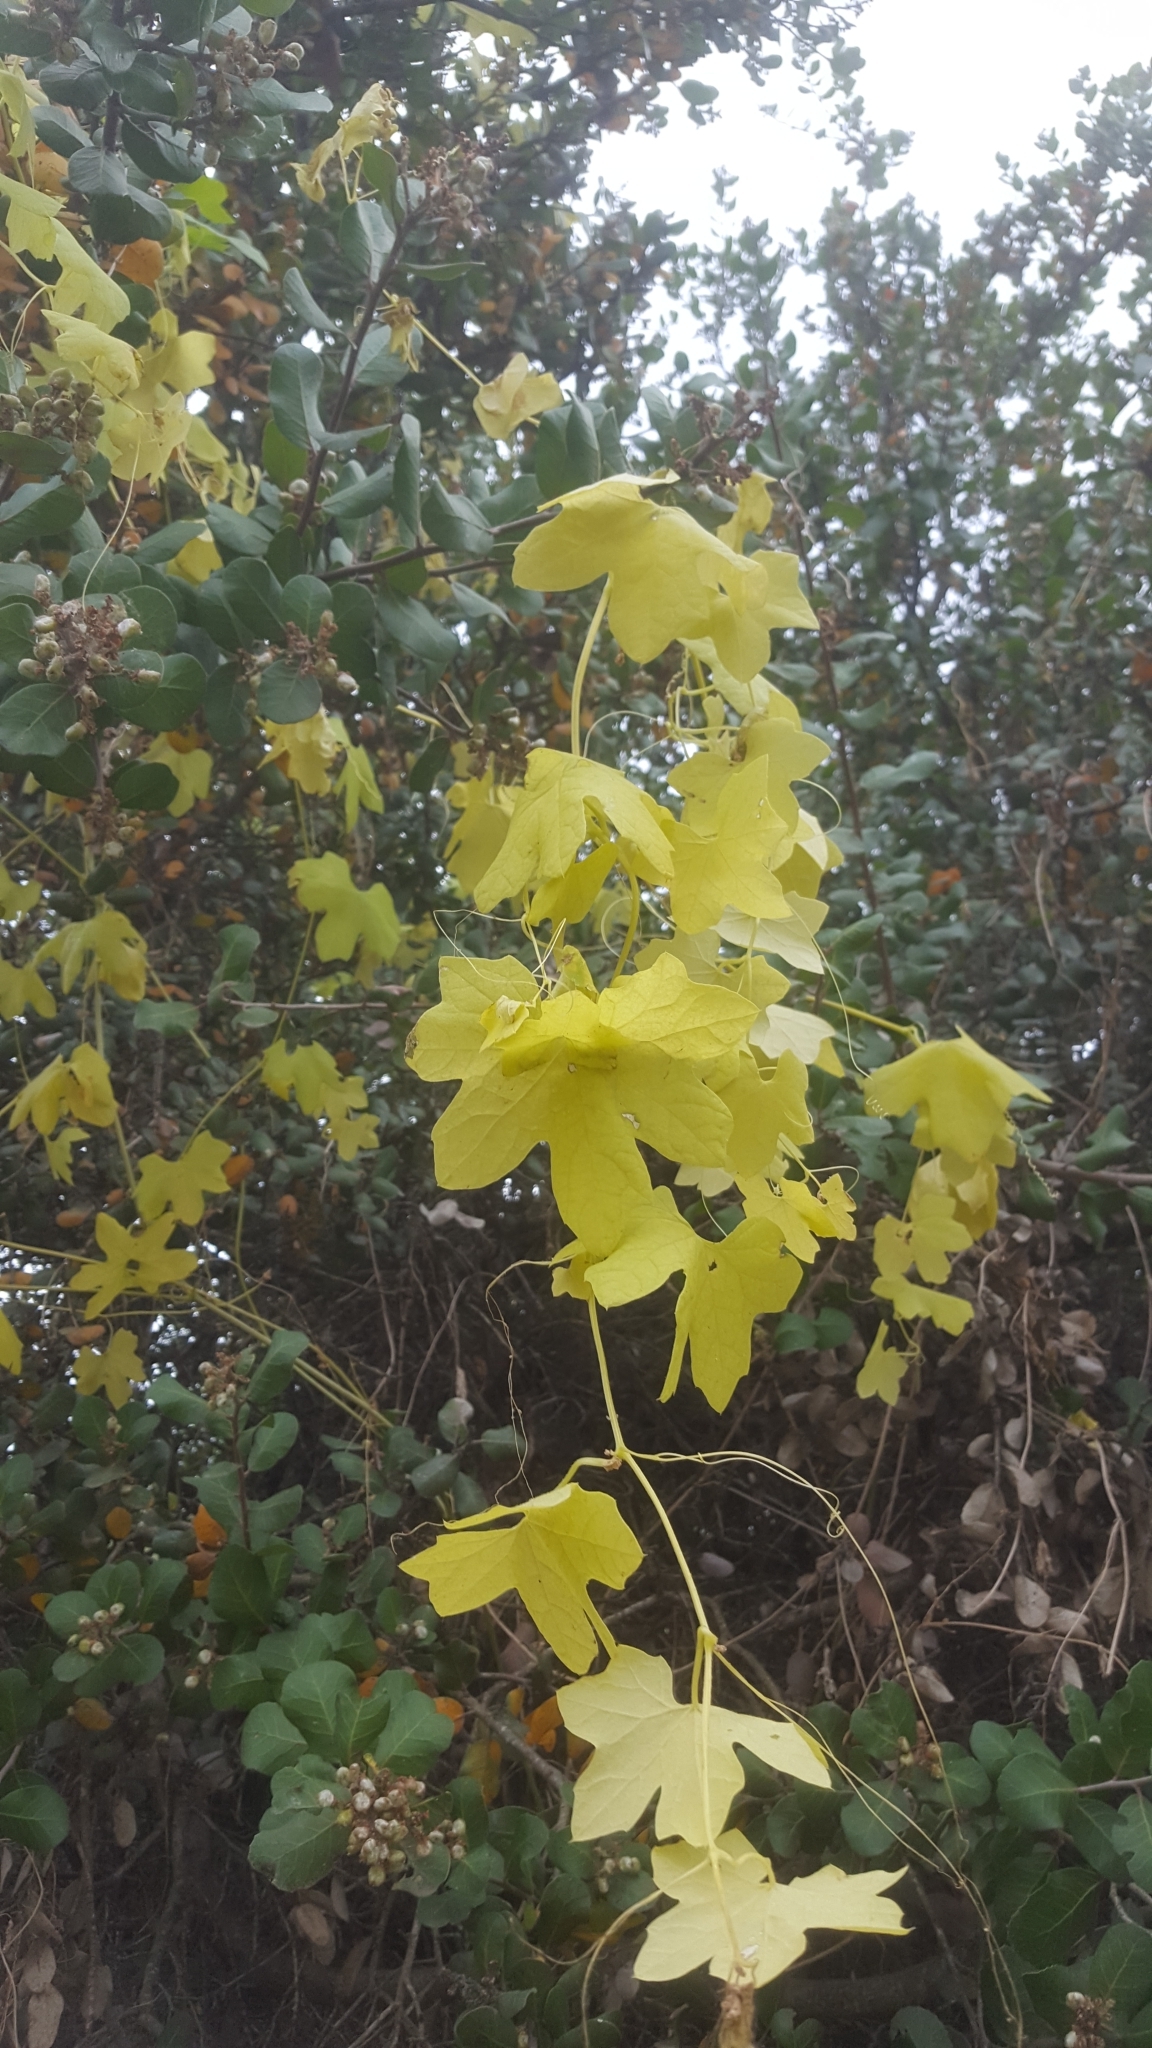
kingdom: Plantae
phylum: Tracheophyta
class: Magnoliopsida
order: Cucurbitales
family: Cucurbitaceae
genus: Marah
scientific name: Marah macrocarpa
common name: Cucamonga manroot
